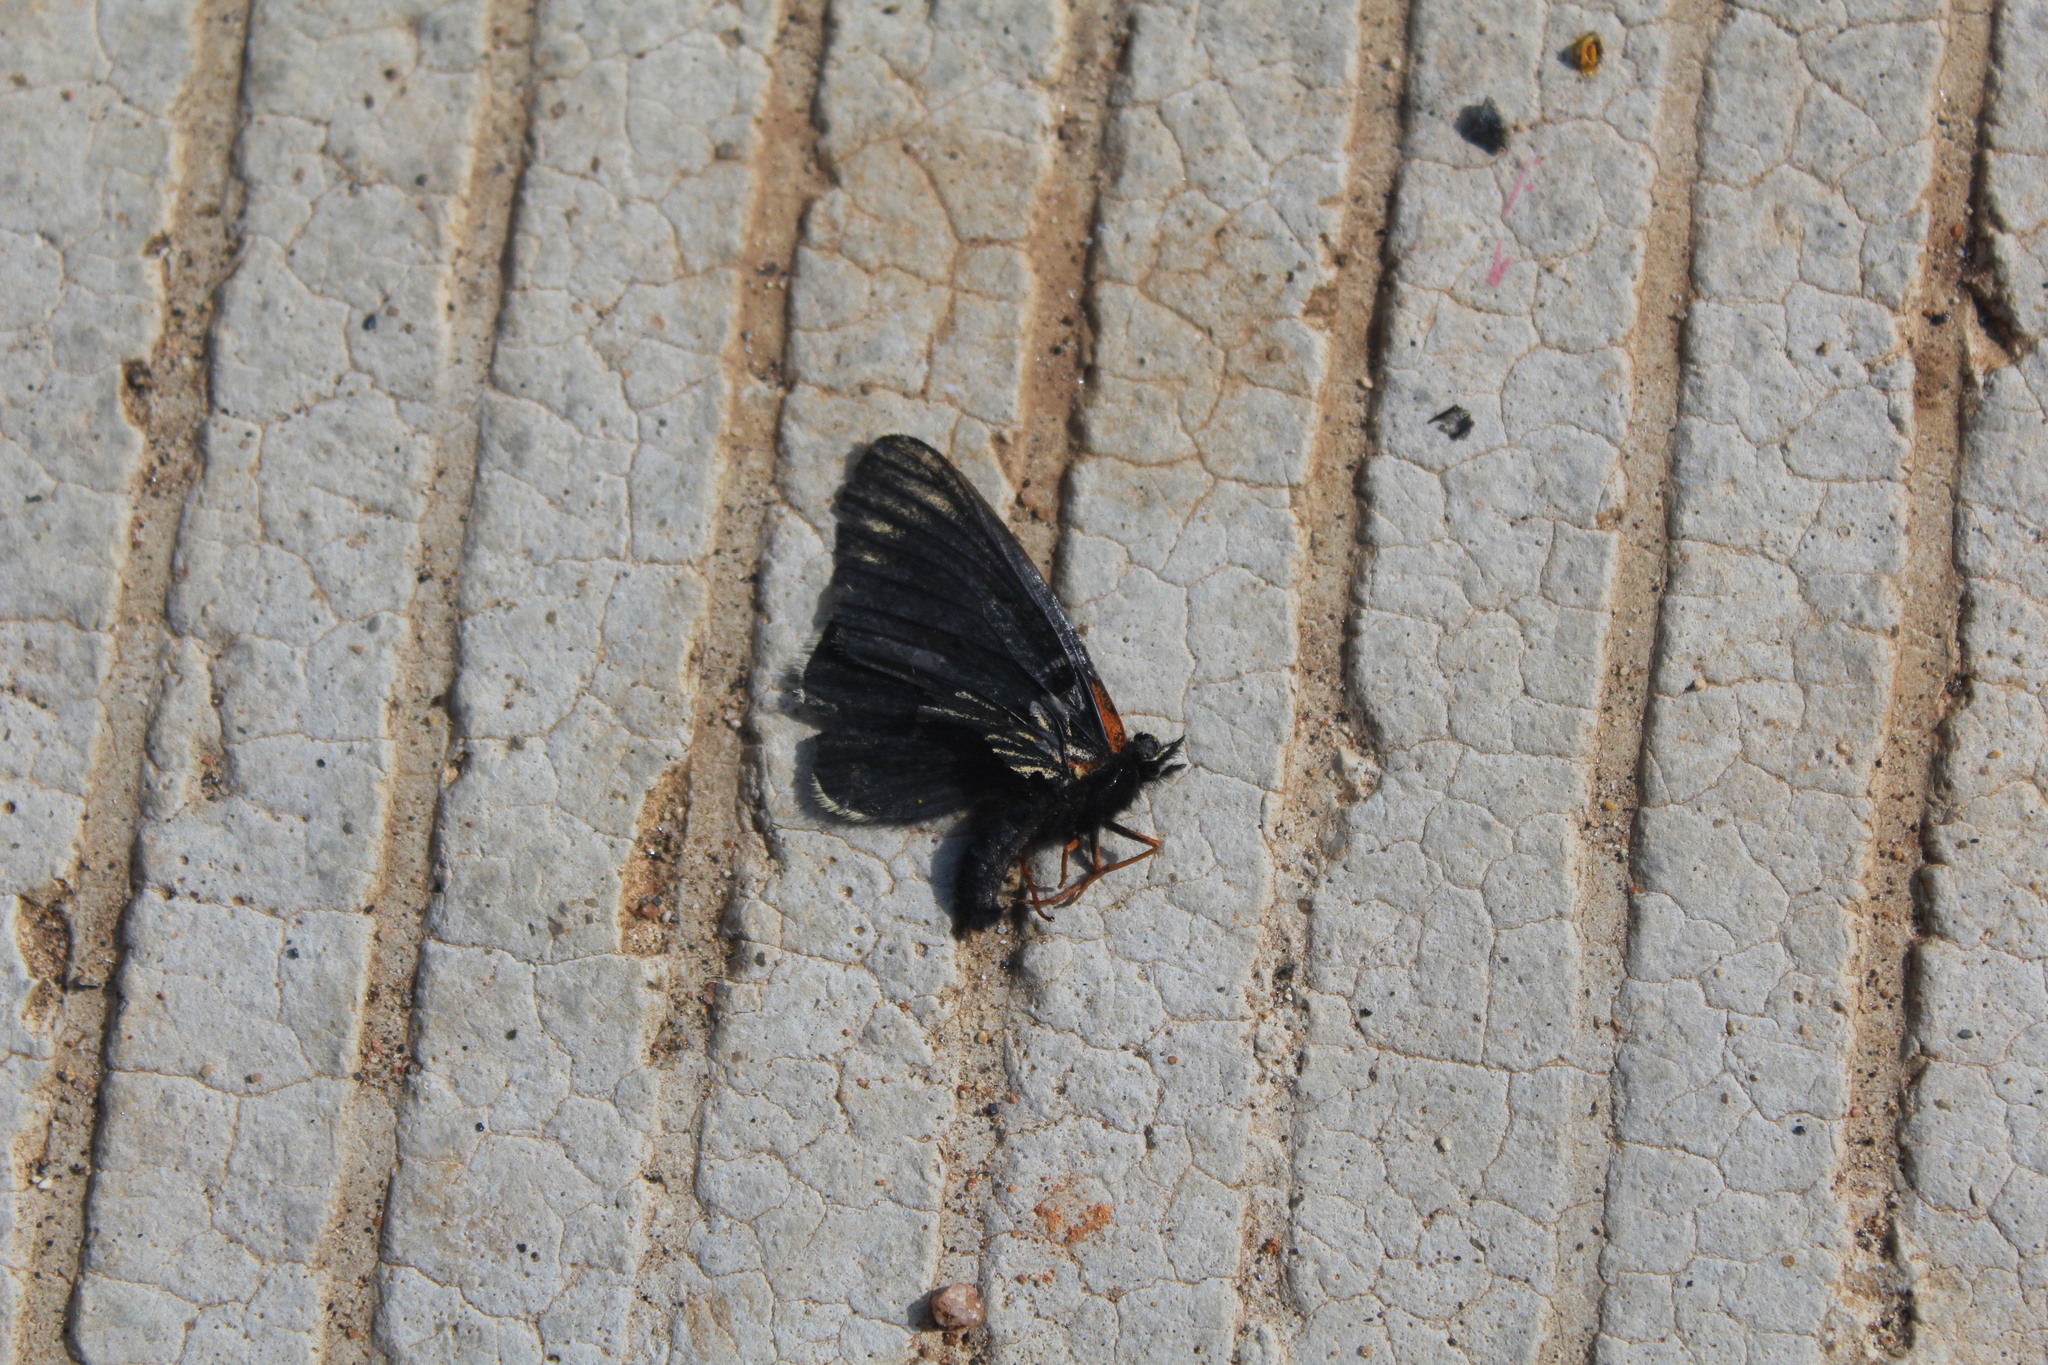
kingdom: Animalia
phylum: Arthropoda
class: Insecta
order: Lepidoptera
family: Nymphalidae
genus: Chlosyne
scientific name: Chlosyne ehrenbergii
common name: White-rayed patch
